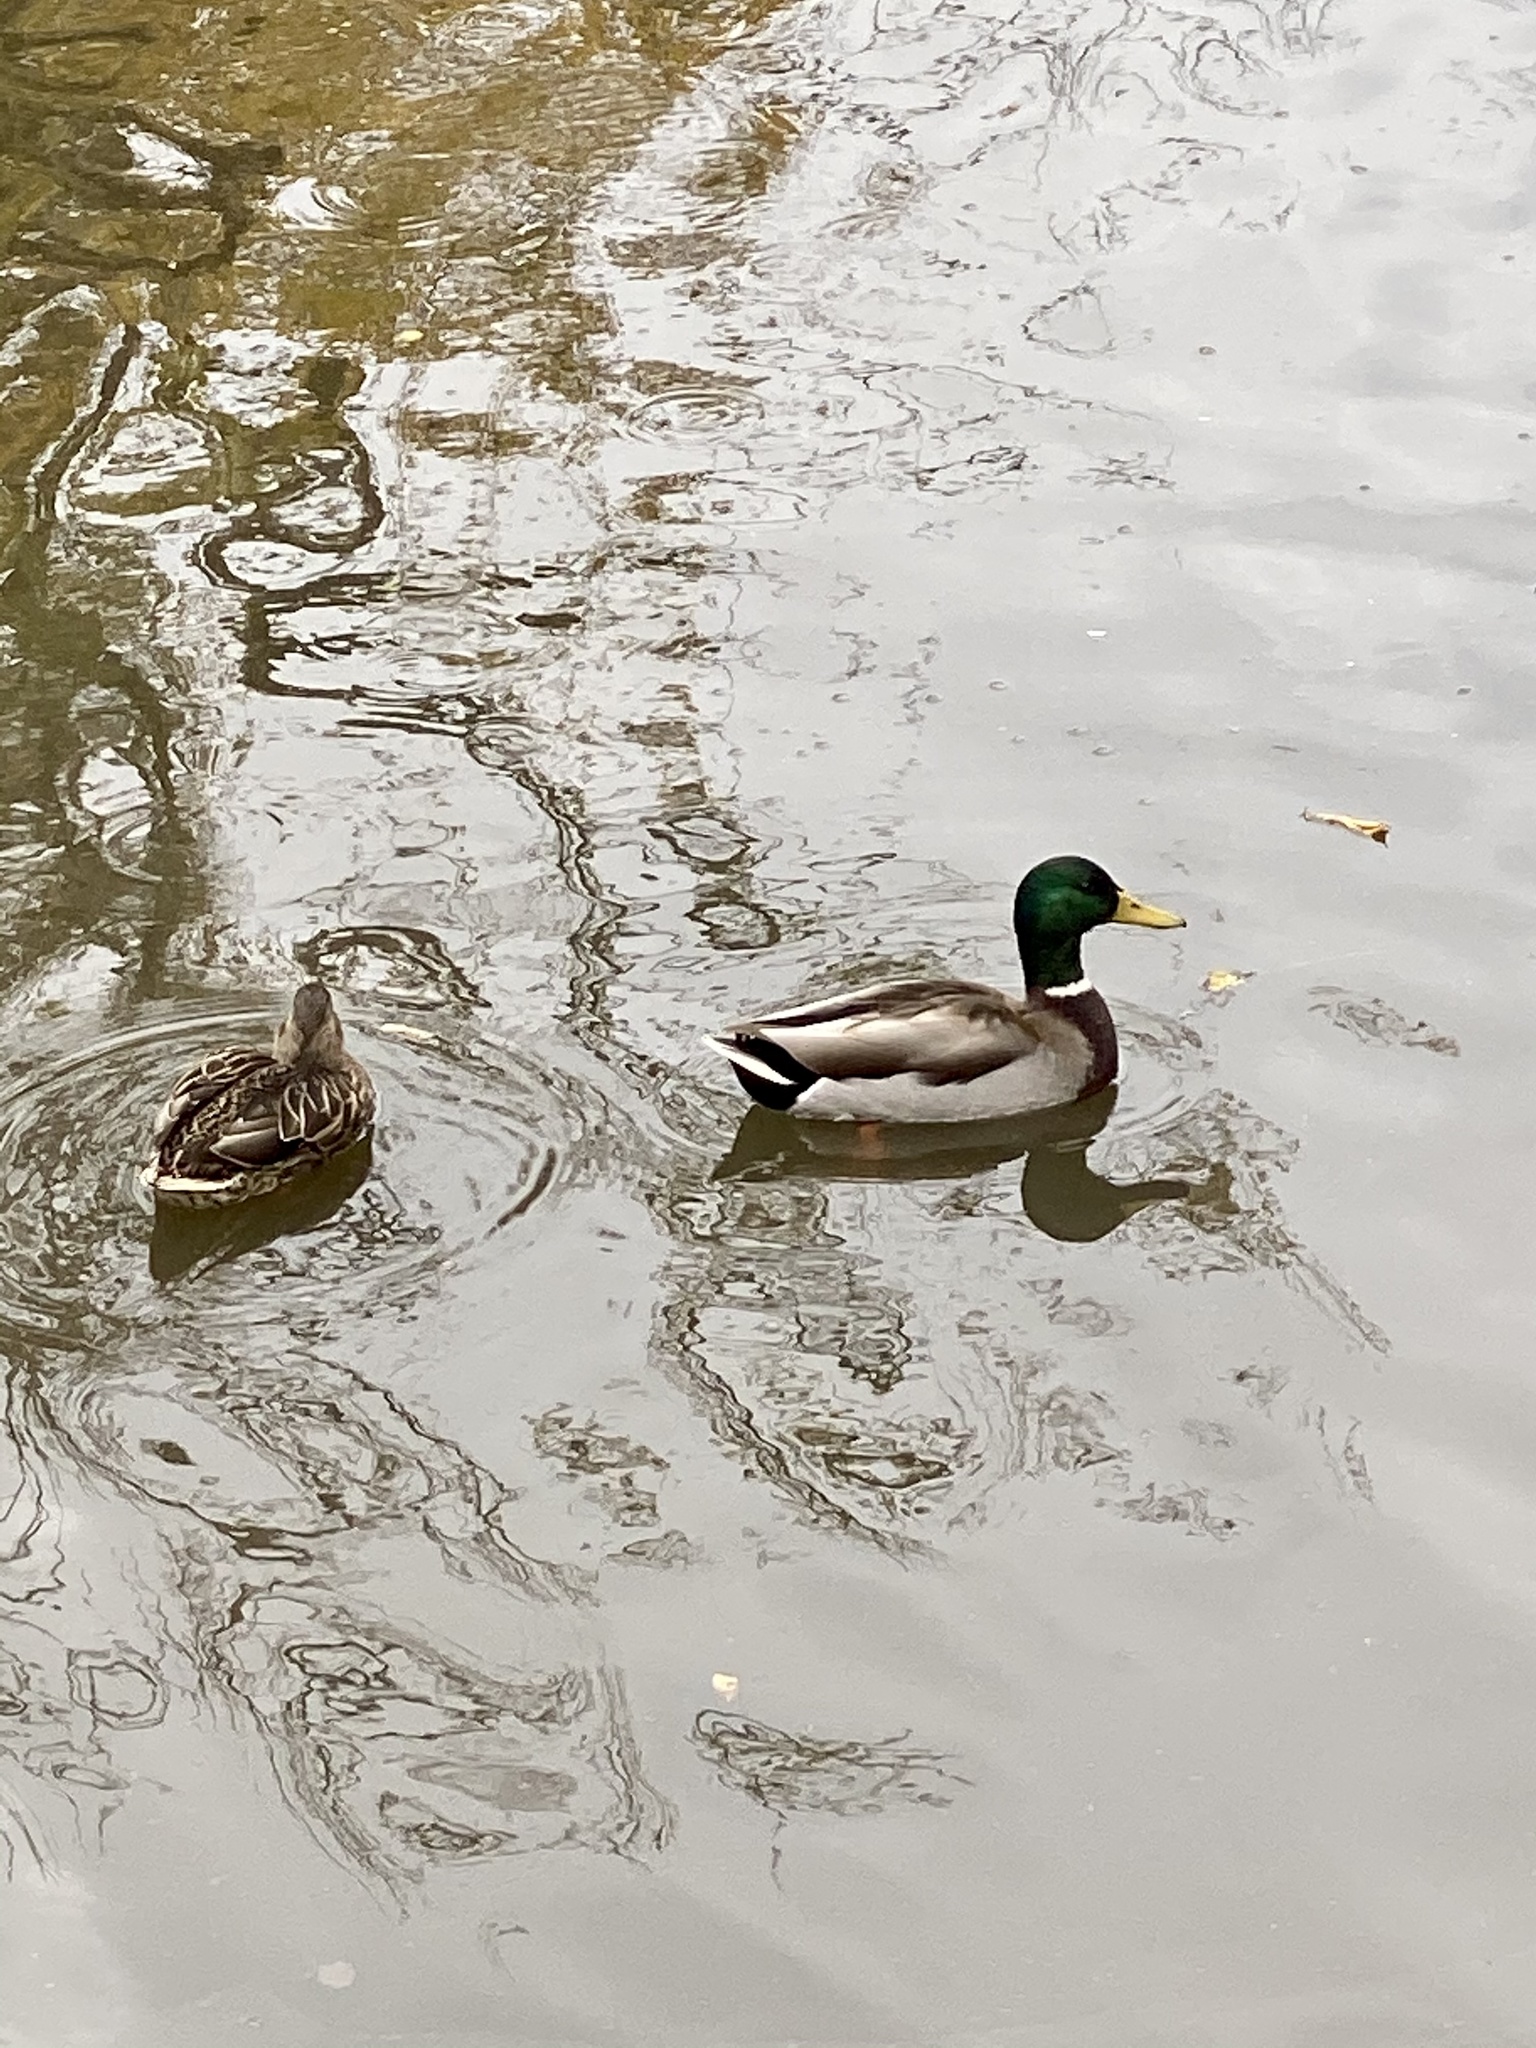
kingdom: Animalia
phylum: Chordata
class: Aves
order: Anseriformes
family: Anatidae
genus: Anas
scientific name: Anas platyrhynchos
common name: Mallard
